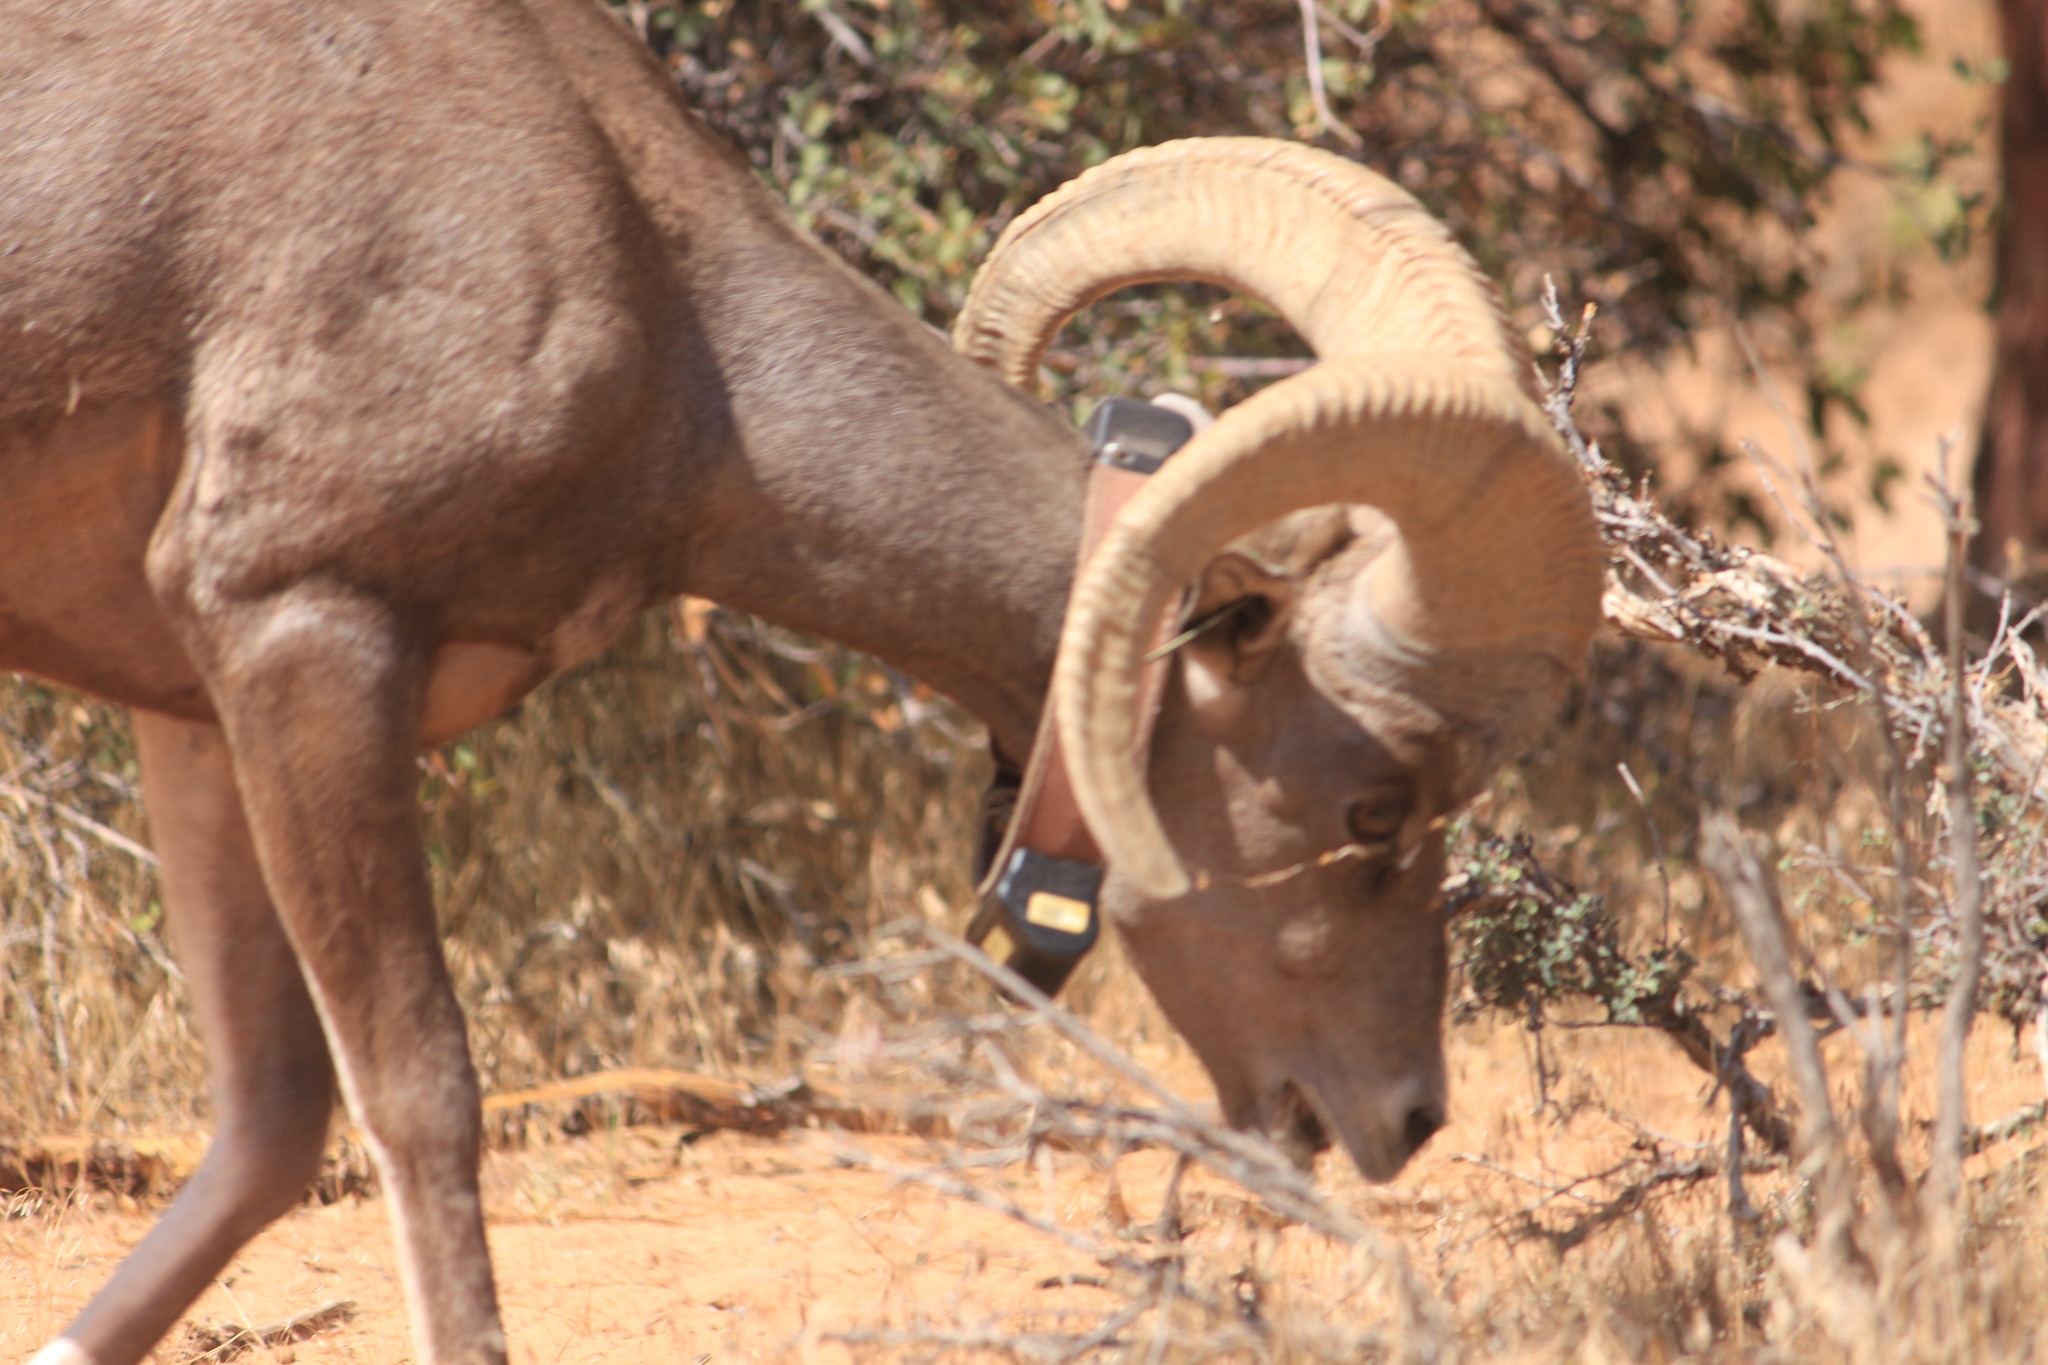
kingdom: Animalia
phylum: Chordata
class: Mammalia
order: Artiodactyla
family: Bovidae
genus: Ovis
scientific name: Ovis canadensis
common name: Bighorn sheep
